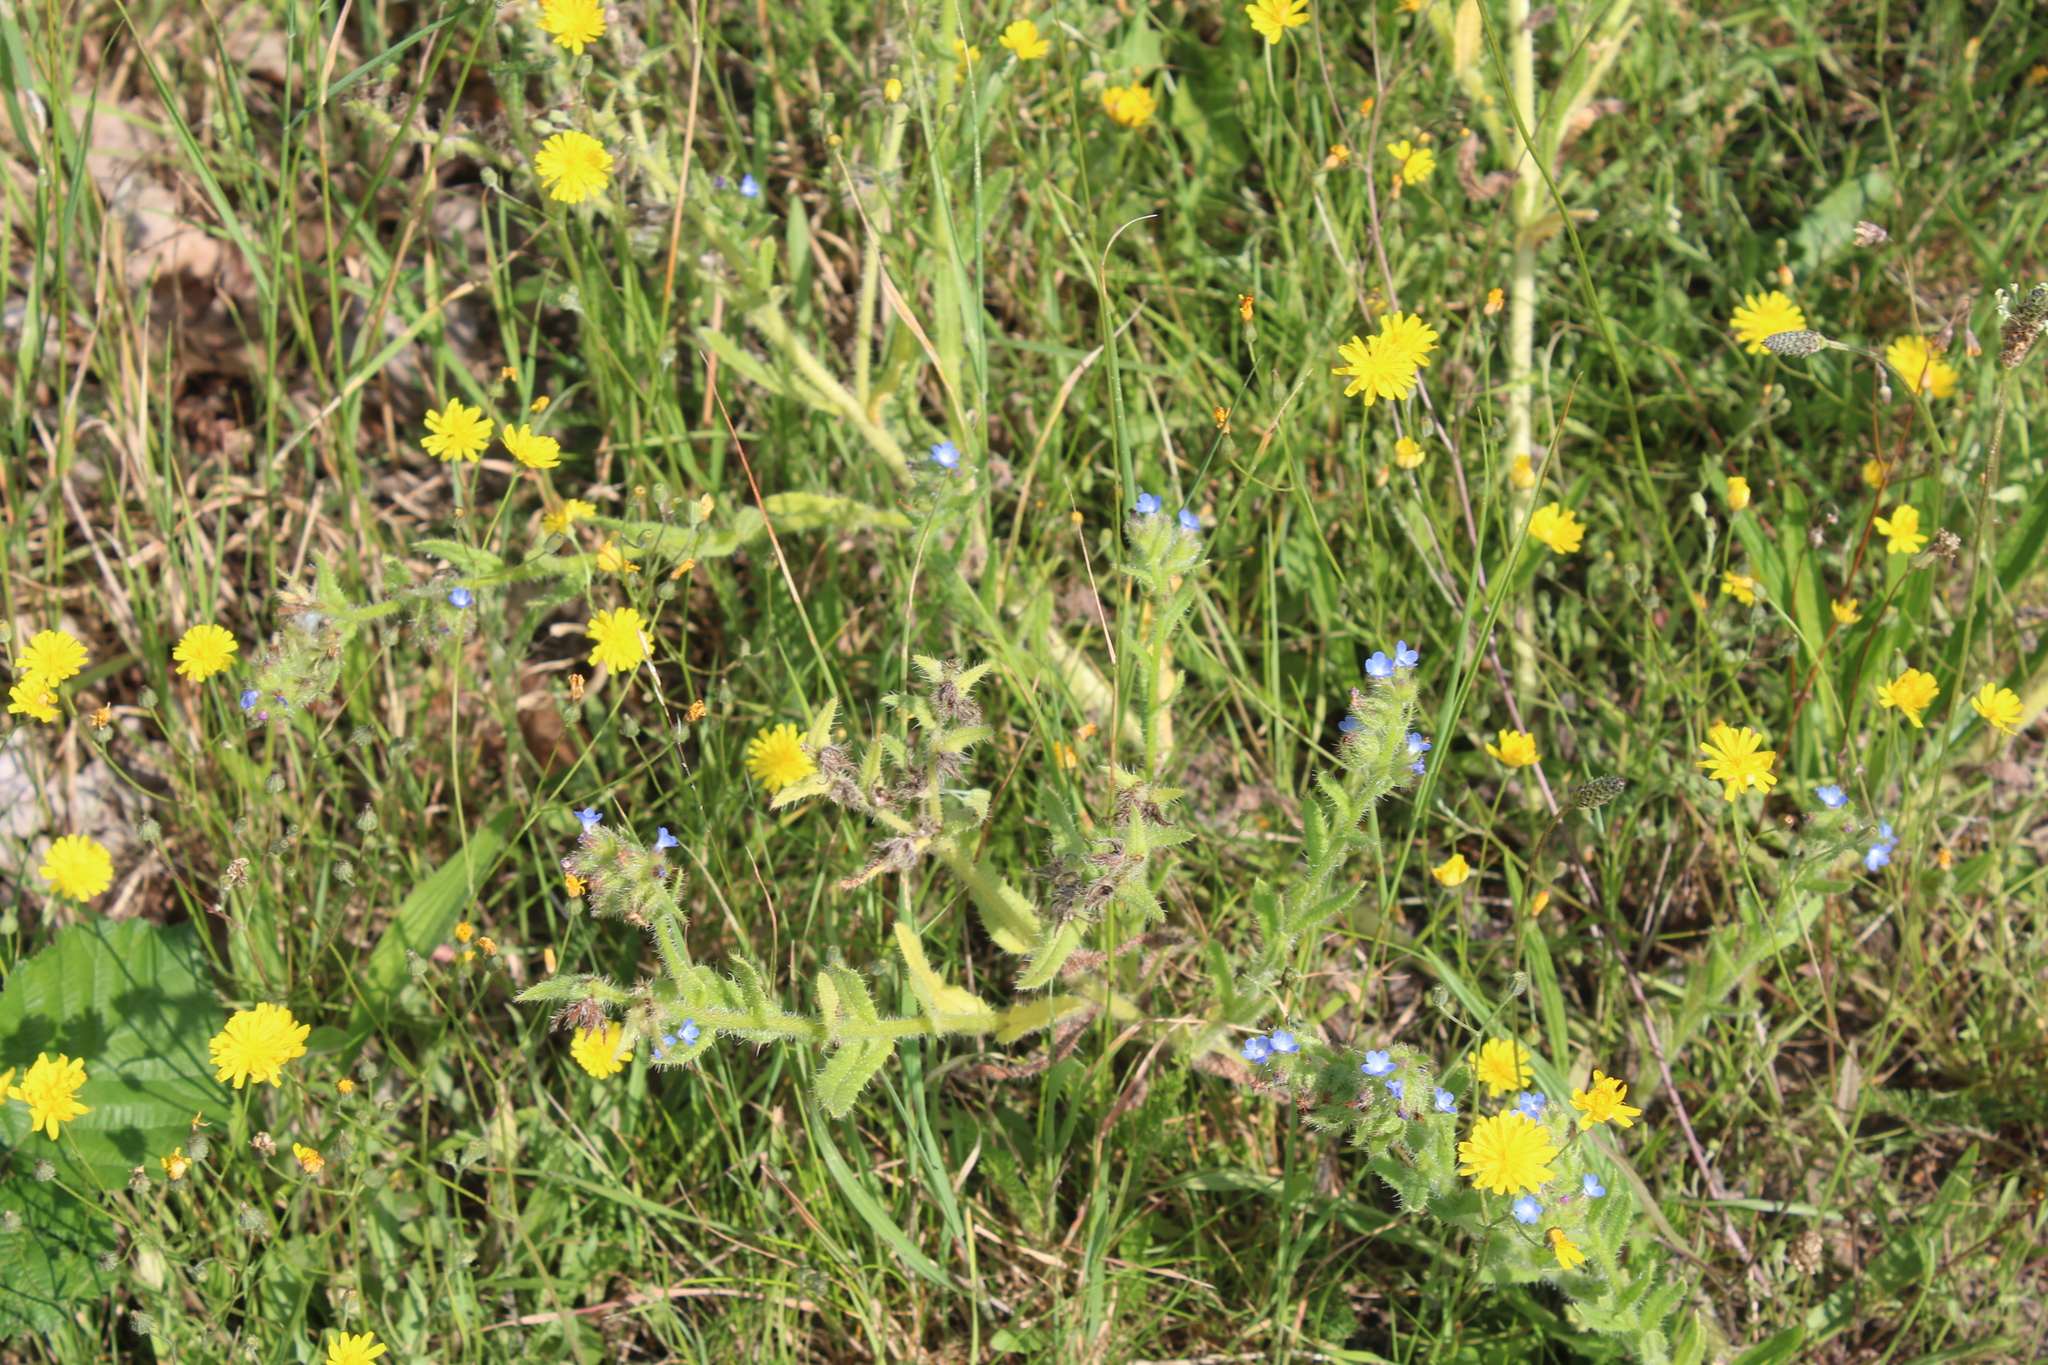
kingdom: Plantae
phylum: Tracheophyta
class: Magnoliopsida
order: Boraginales
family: Boraginaceae
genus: Lycopsis
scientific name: Lycopsis arvensis
